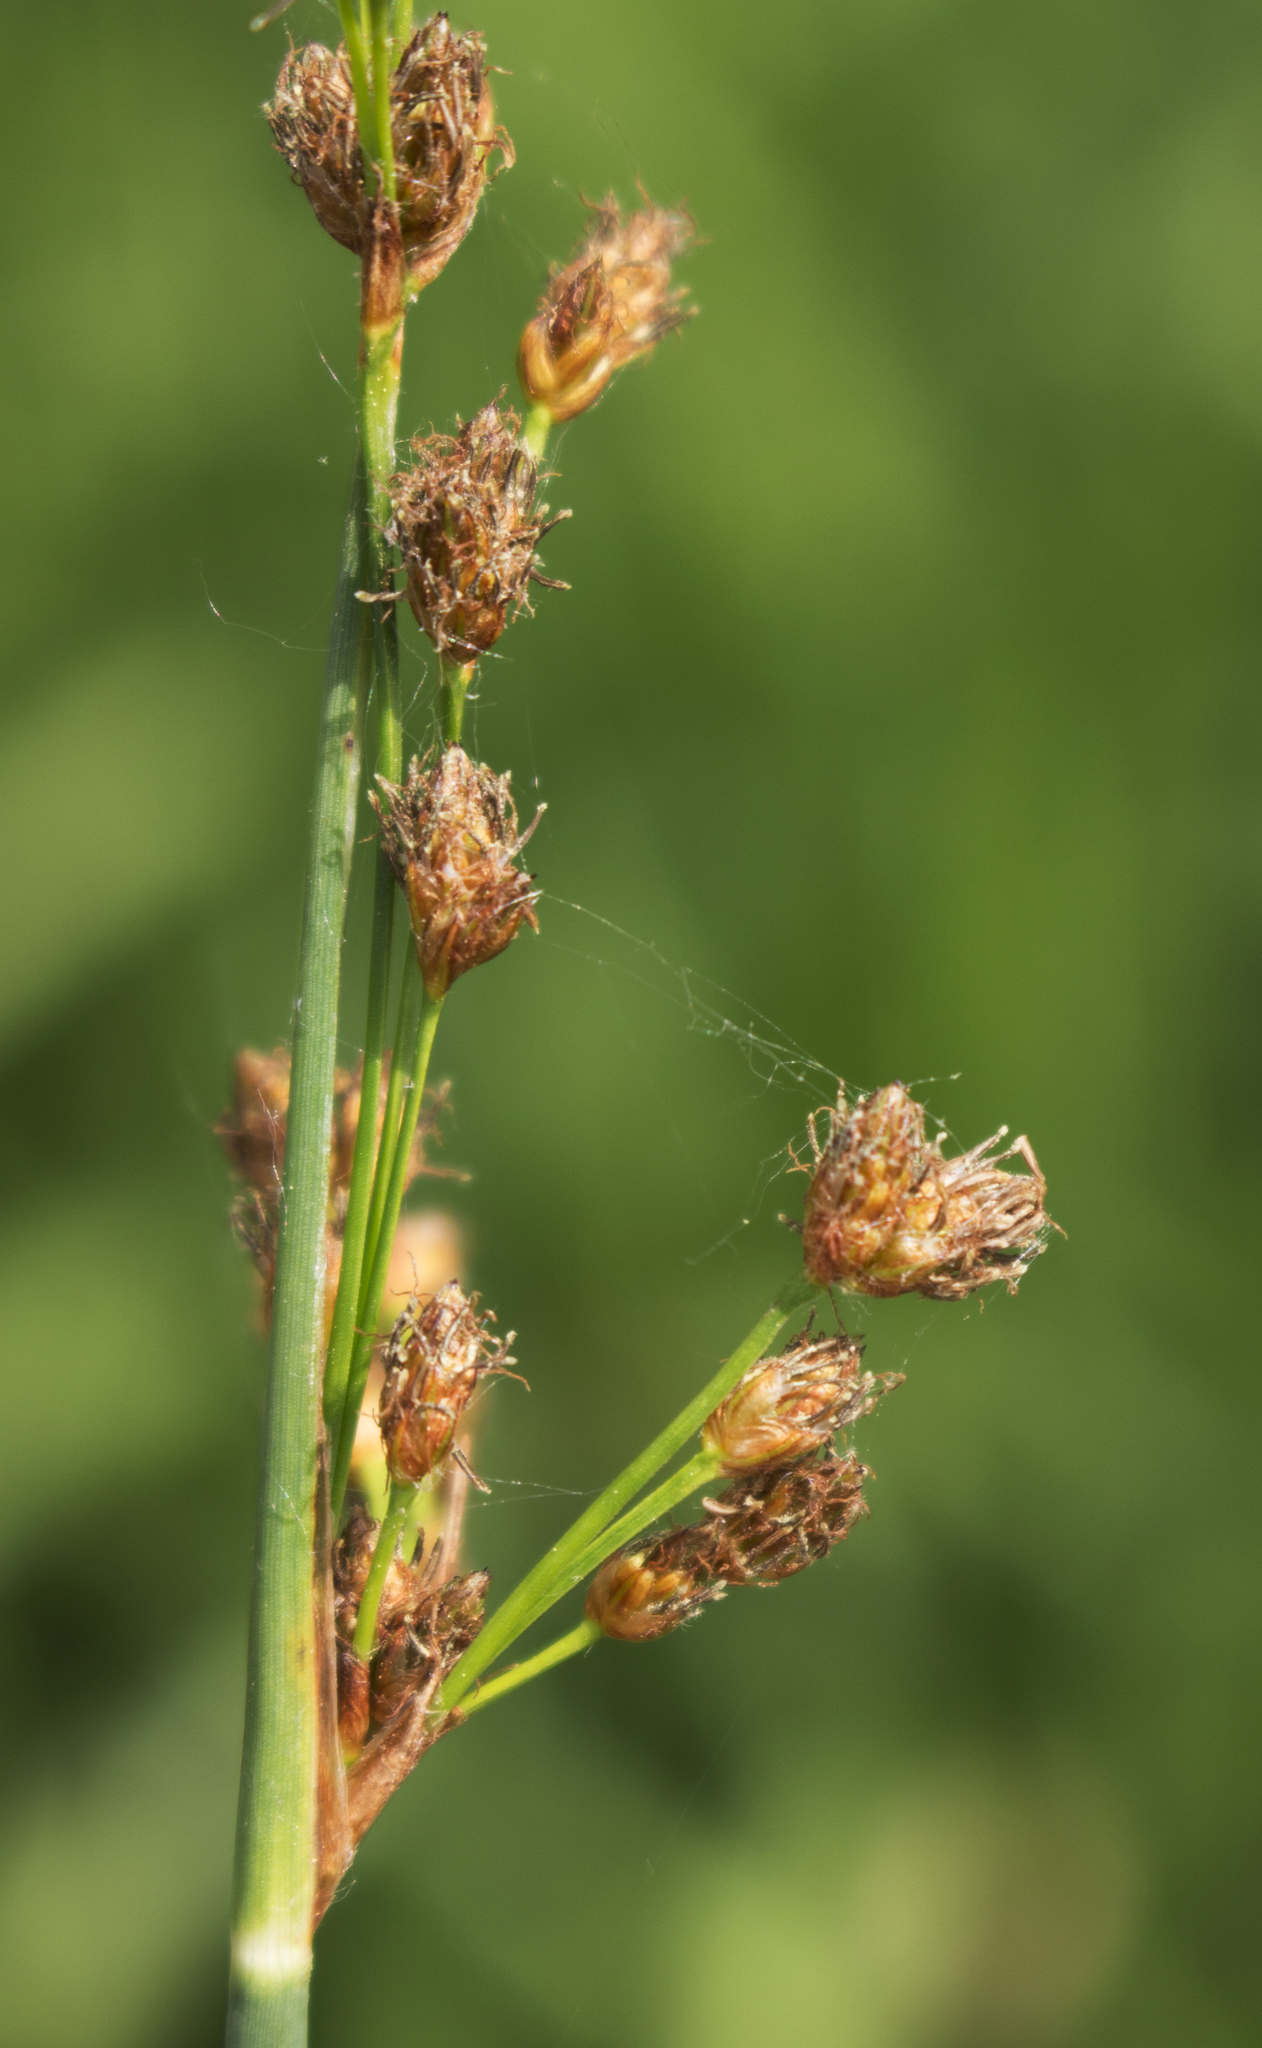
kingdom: Plantae
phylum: Tracheophyta
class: Liliopsida
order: Poales
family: Cyperaceae
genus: Schoenoplectus
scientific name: Schoenoplectus tabernaemontani
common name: Grey club-rush
